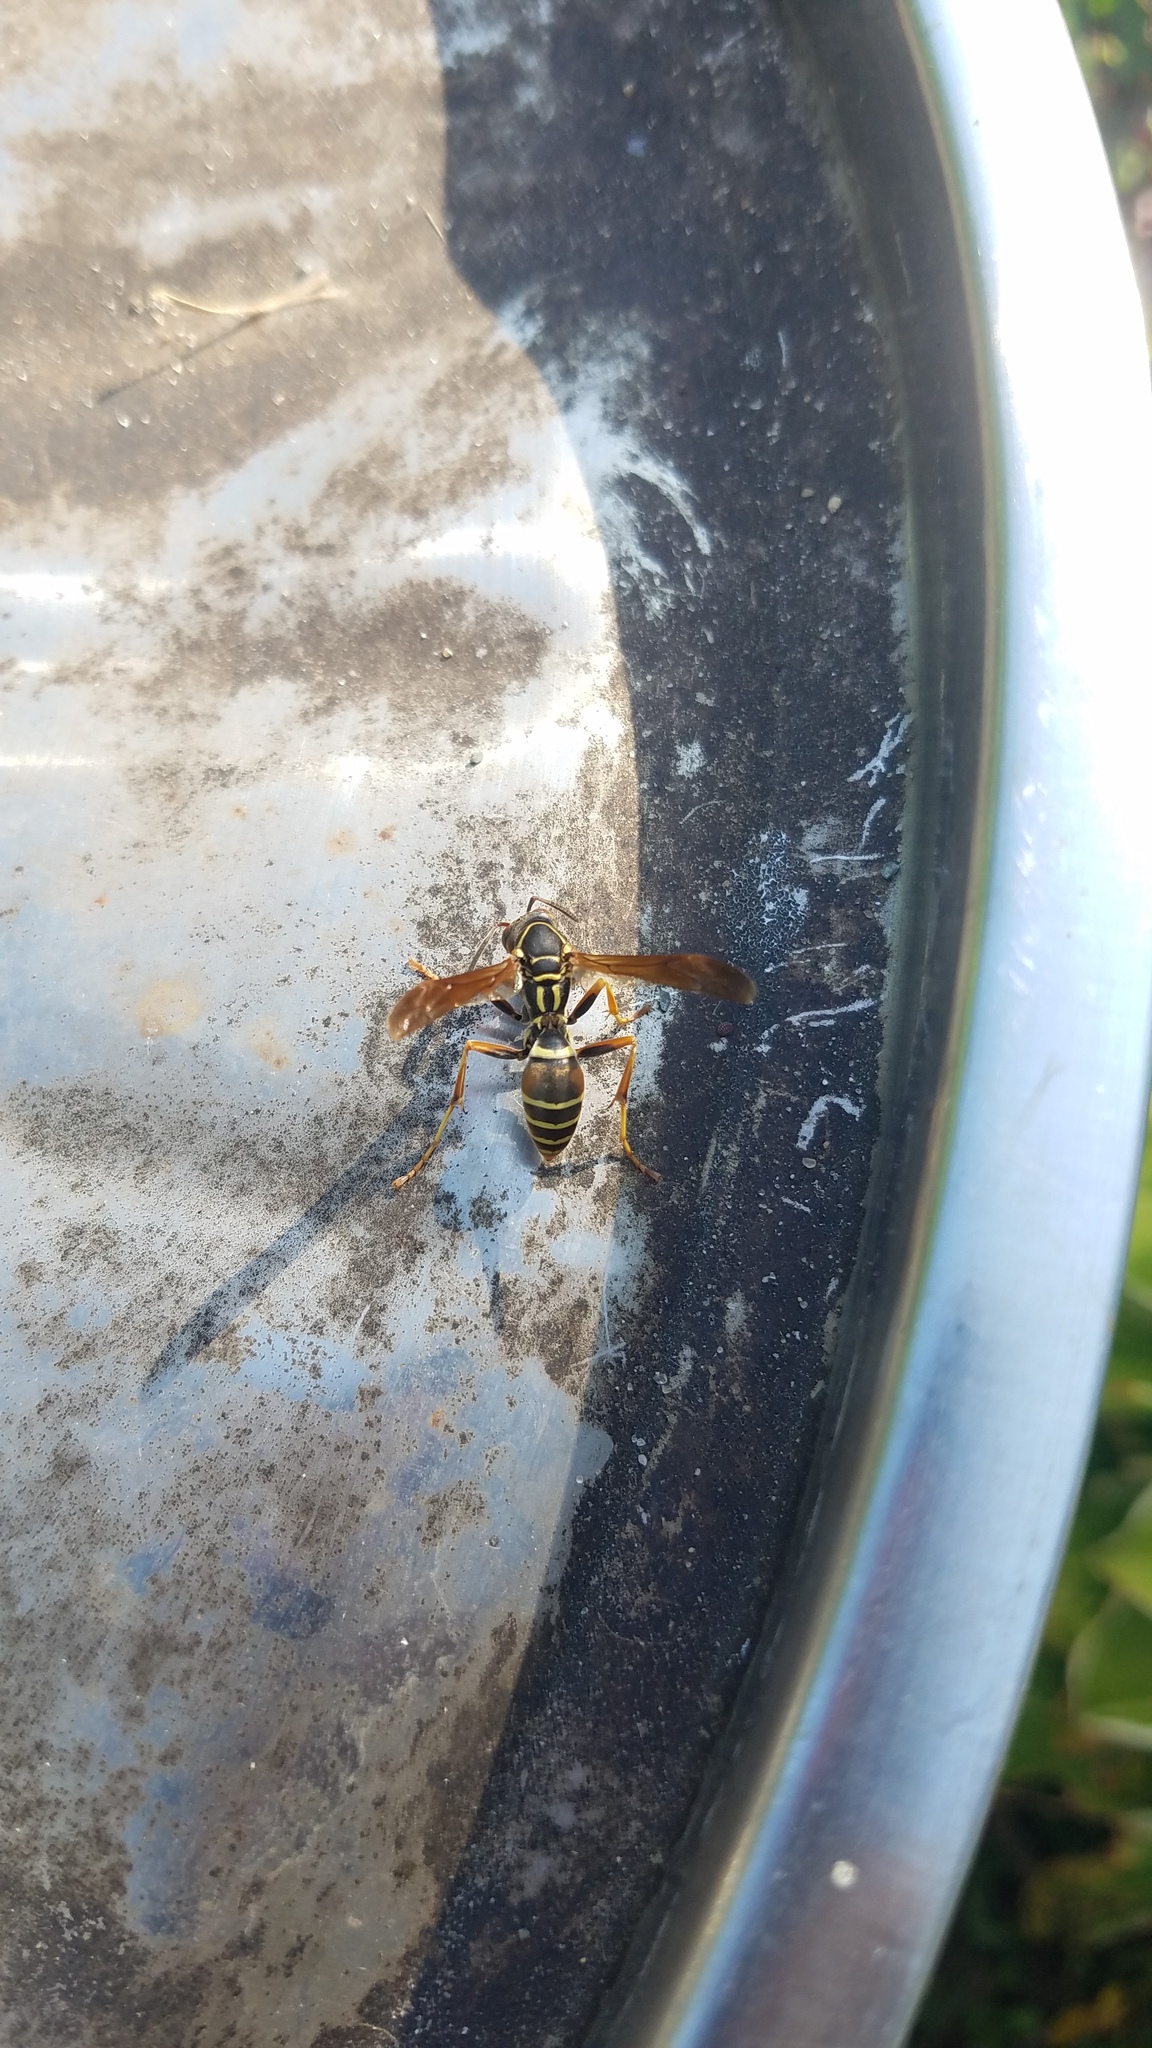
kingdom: Animalia
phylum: Arthropoda
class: Insecta
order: Hymenoptera
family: Eumenidae
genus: Polistes
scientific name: Polistes fuscatus
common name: Dark paper wasp
